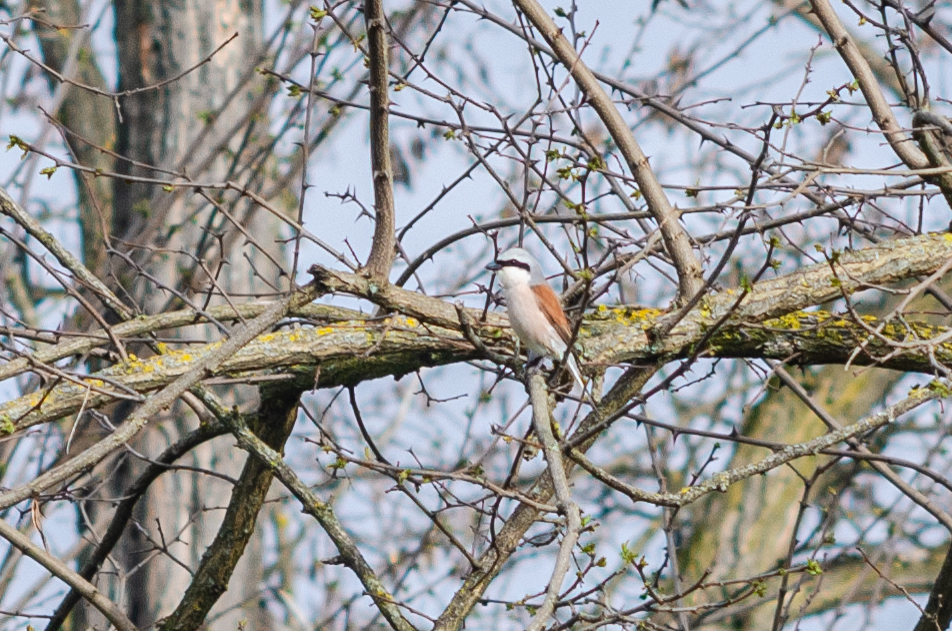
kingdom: Animalia
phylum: Chordata
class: Aves
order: Passeriformes
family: Laniidae
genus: Lanius
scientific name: Lanius collurio
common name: Red-backed shrike
